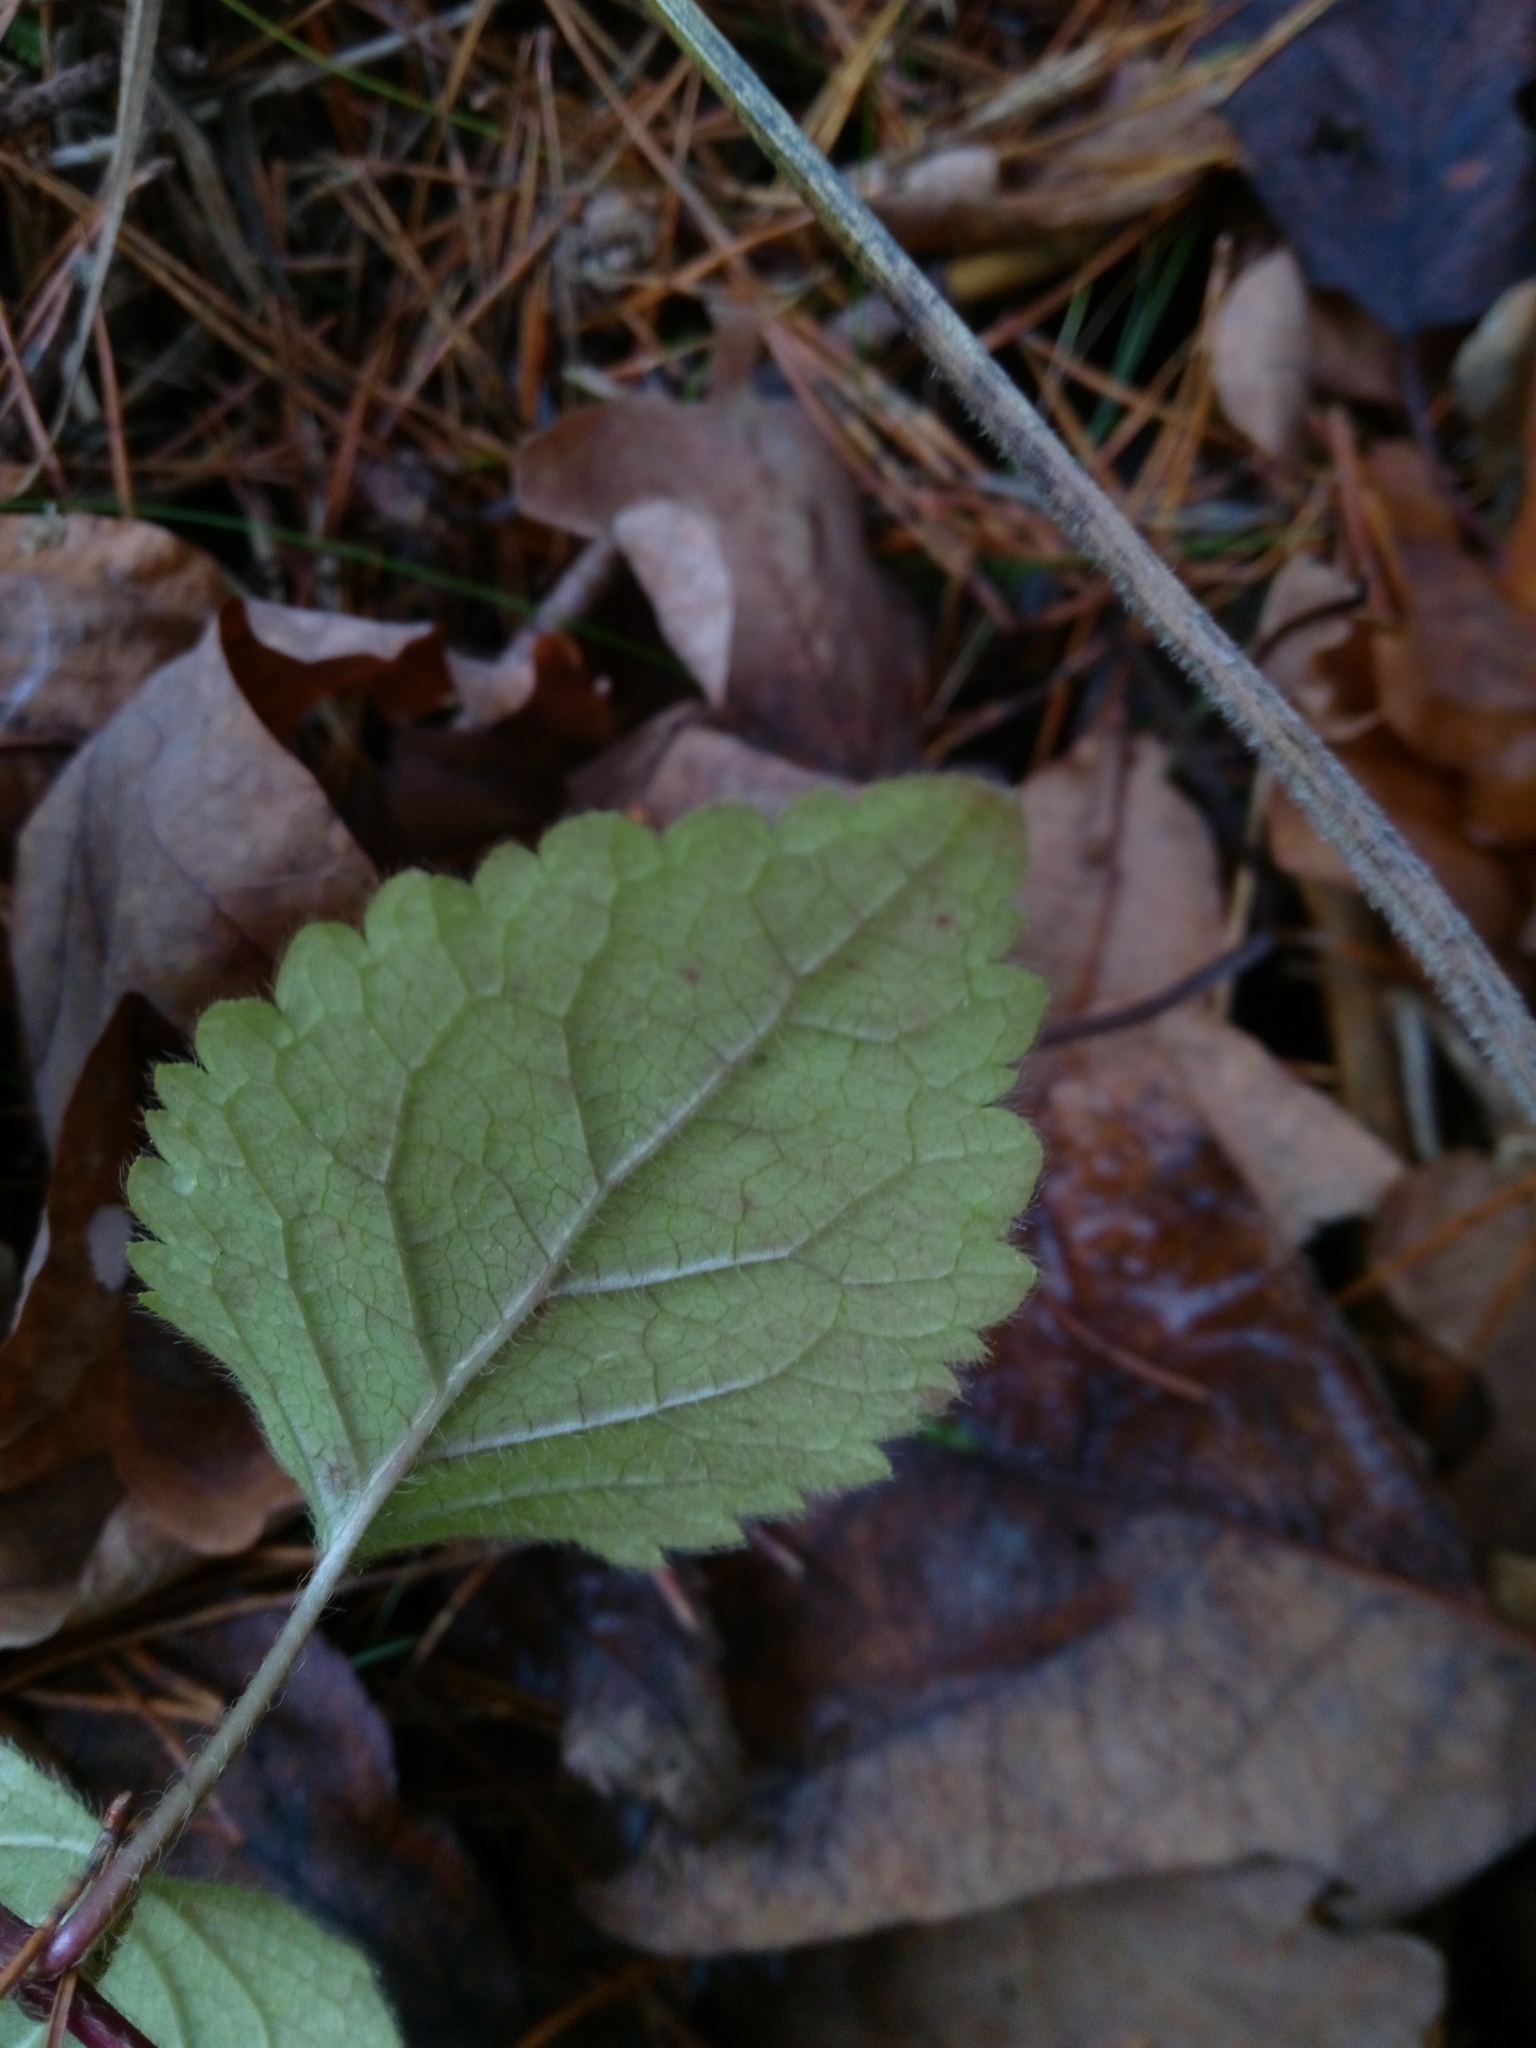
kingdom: Plantae
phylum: Tracheophyta
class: Magnoliopsida
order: Lamiales
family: Lamiaceae
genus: Lamium
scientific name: Lamium galeobdolon
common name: Yellow archangel
